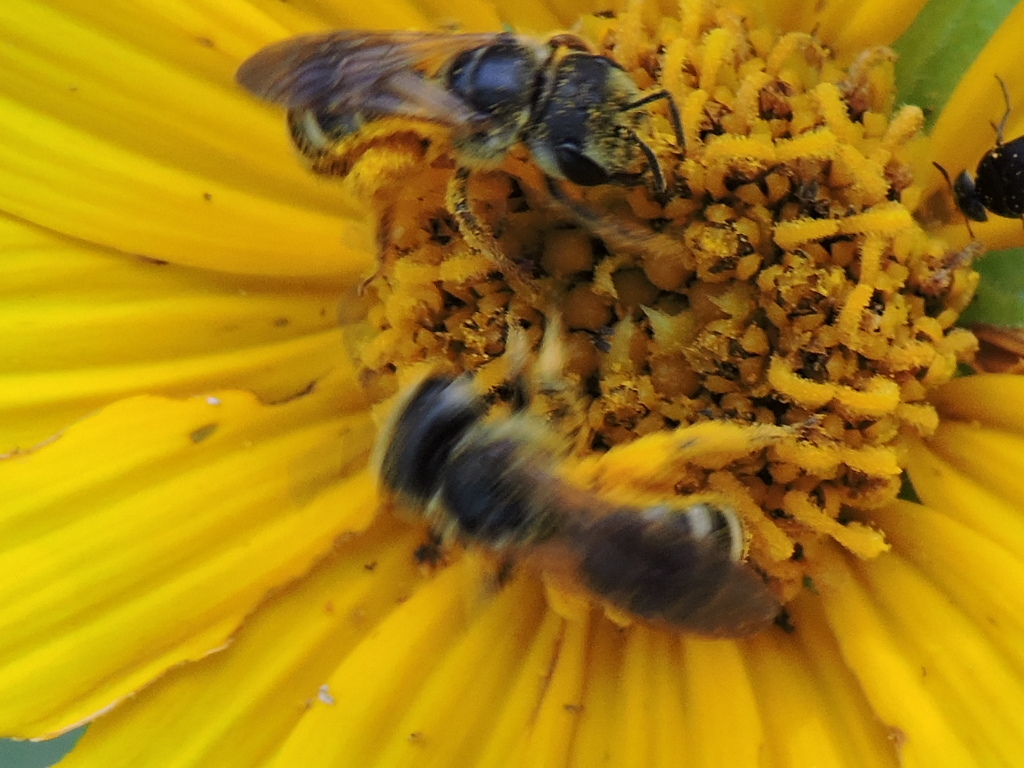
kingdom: Animalia
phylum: Arthropoda
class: Insecta
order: Hymenoptera
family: Halictidae
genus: Halictus
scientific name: Halictus ligatus
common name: Ligated furrow bee
